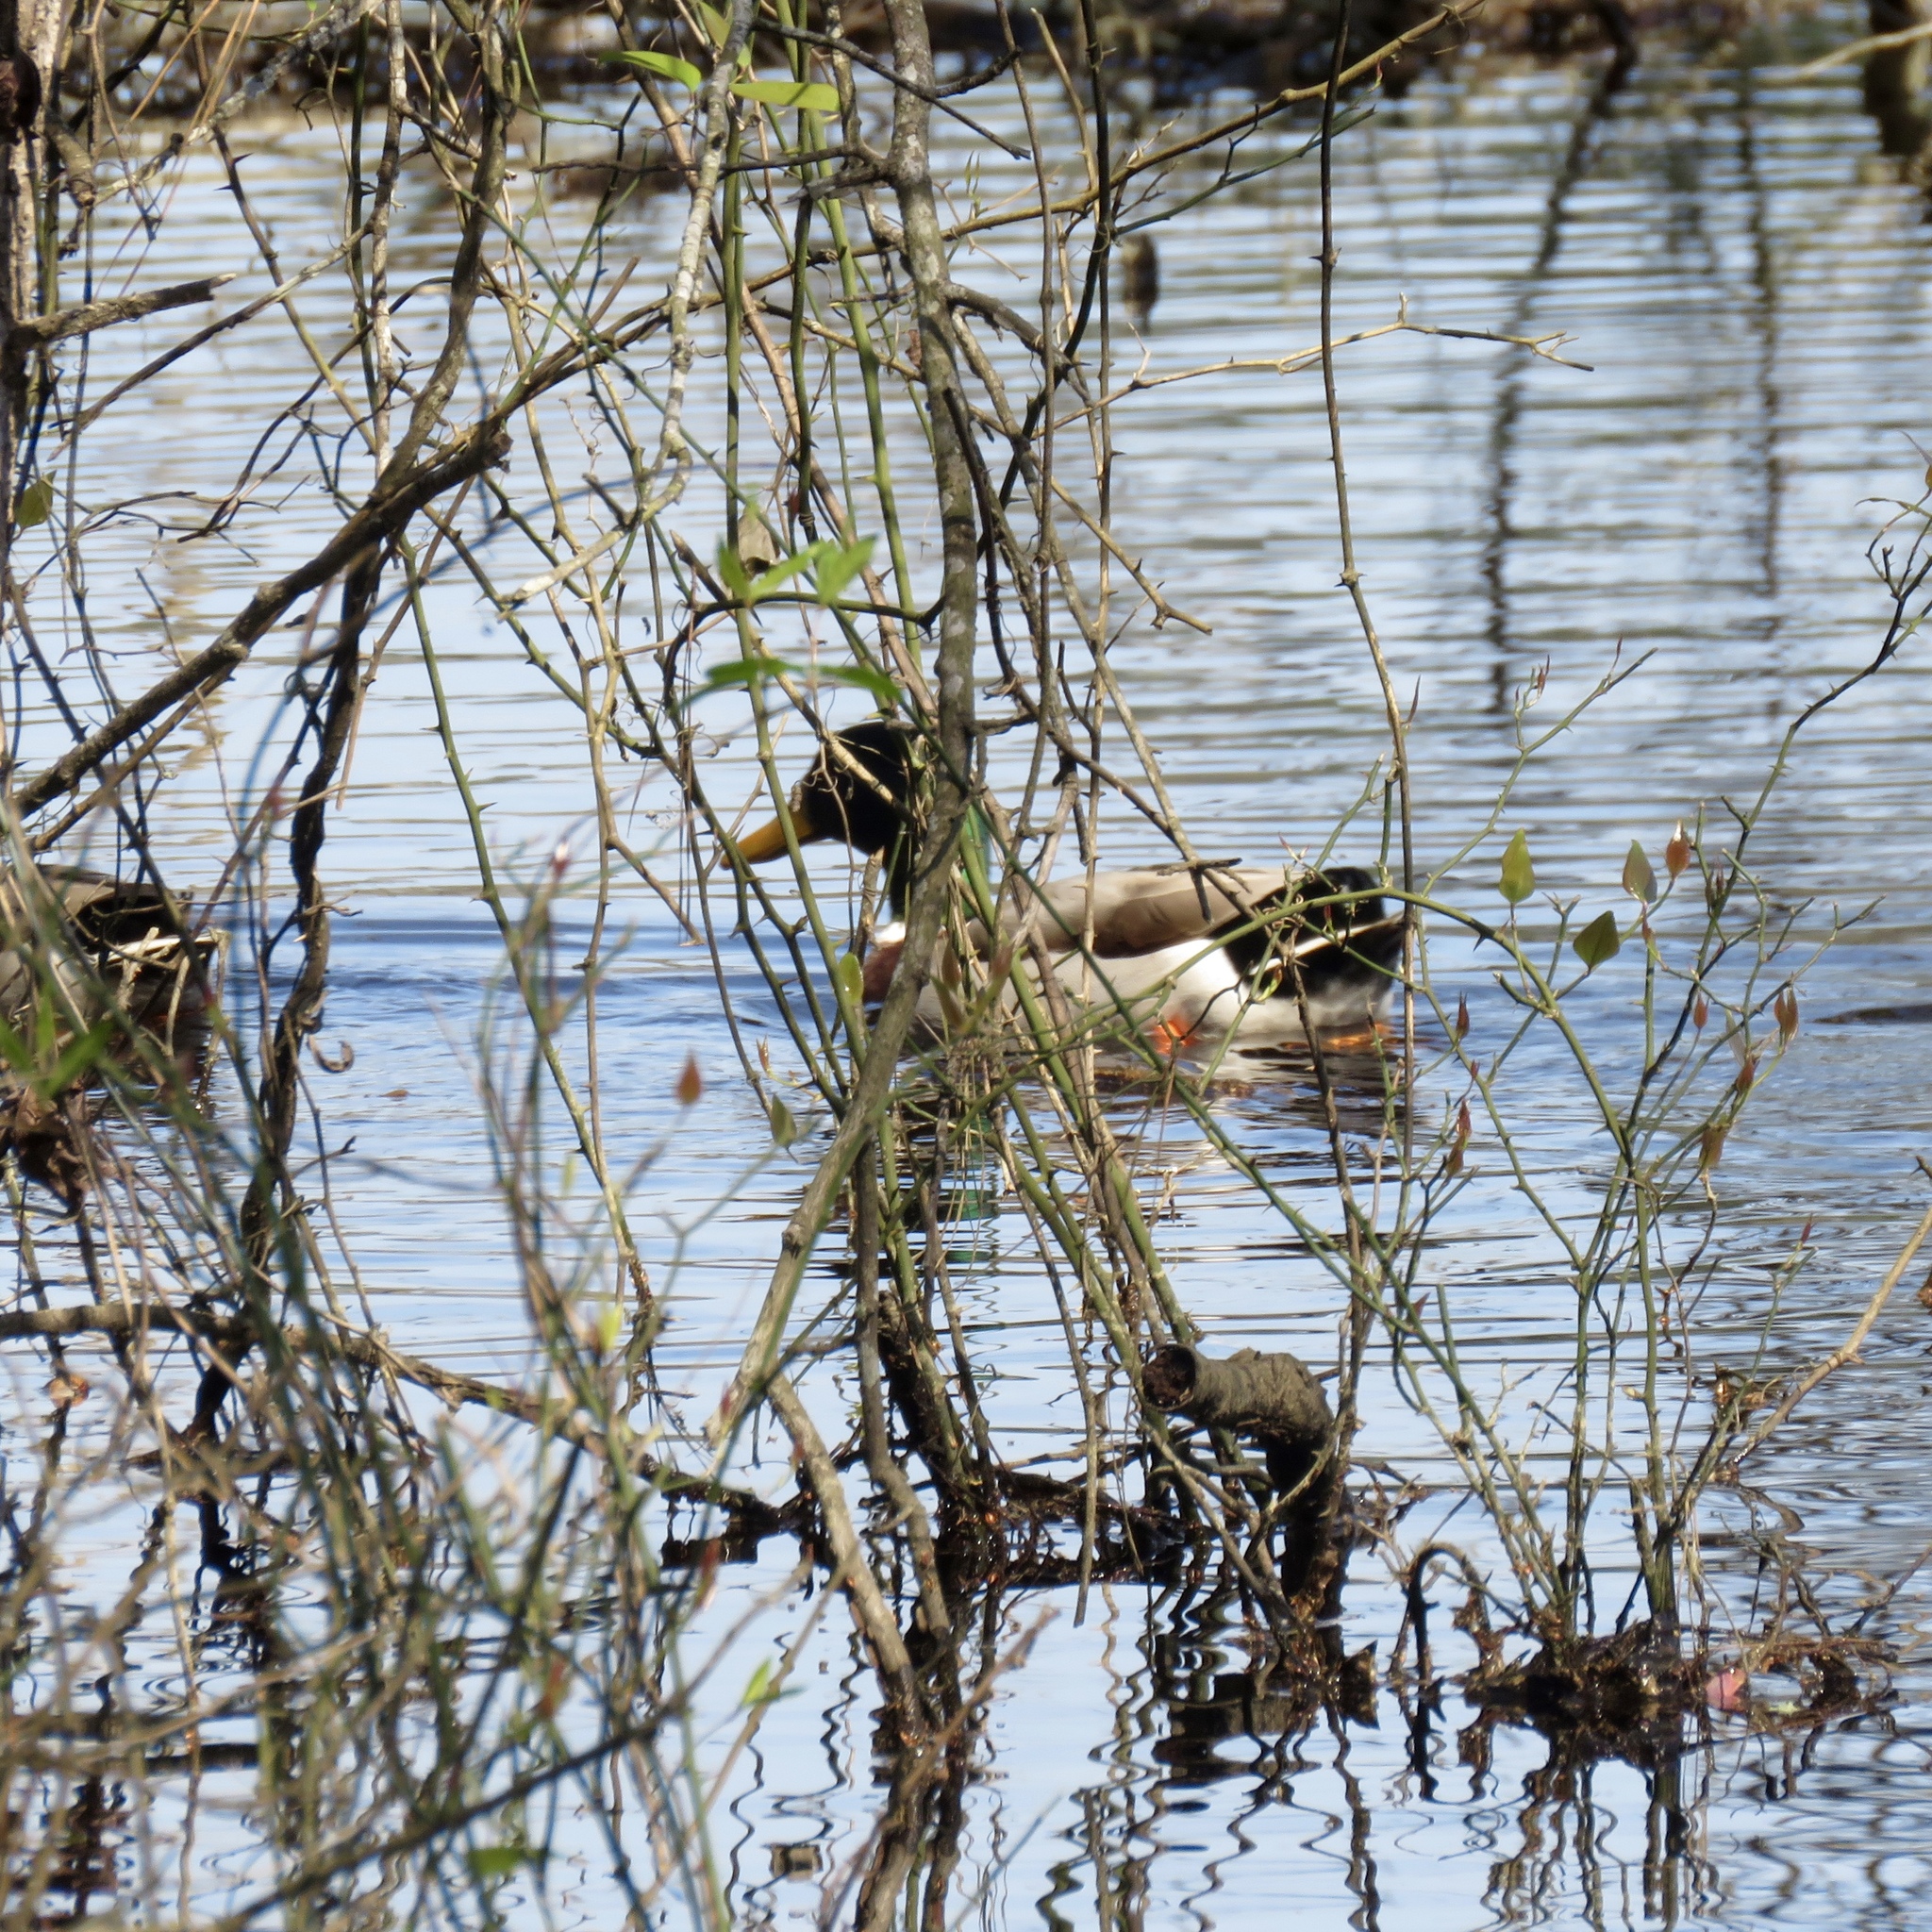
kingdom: Animalia
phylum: Chordata
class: Aves
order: Anseriformes
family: Anatidae
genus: Anas
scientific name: Anas platyrhynchos
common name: Mallard
